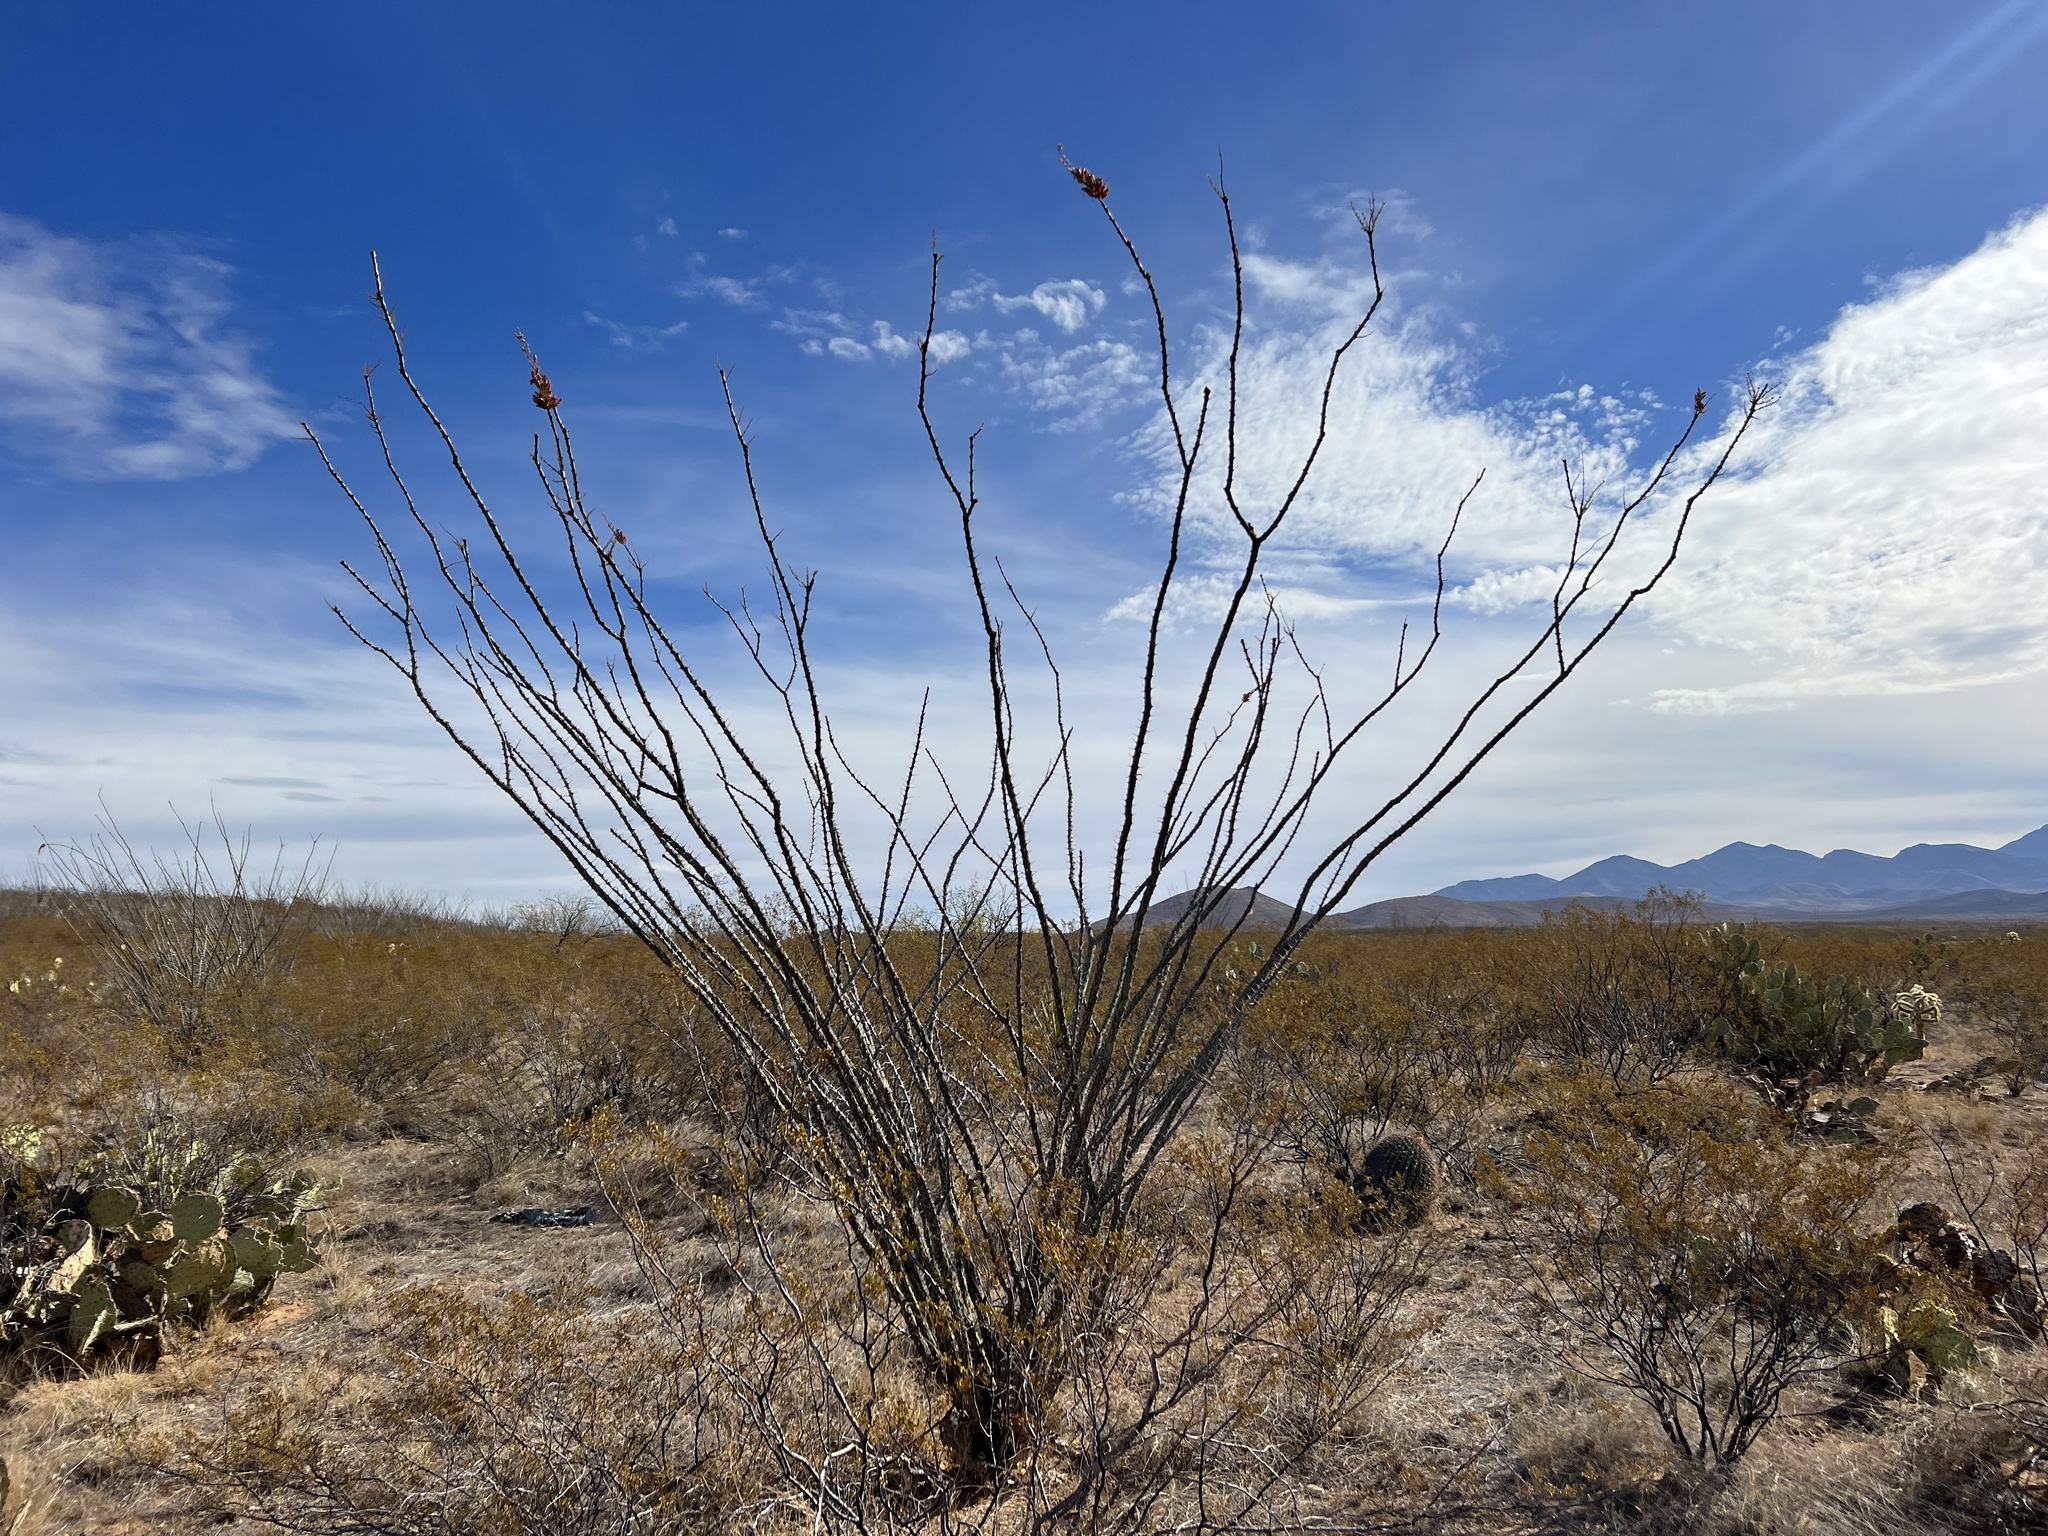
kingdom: Plantae
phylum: Tracheophyta
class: Magnoliopsida
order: Ericales
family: Fouquieriaceae
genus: Fouquieria
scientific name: Fouquieria splendens
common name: Vine-cactus
